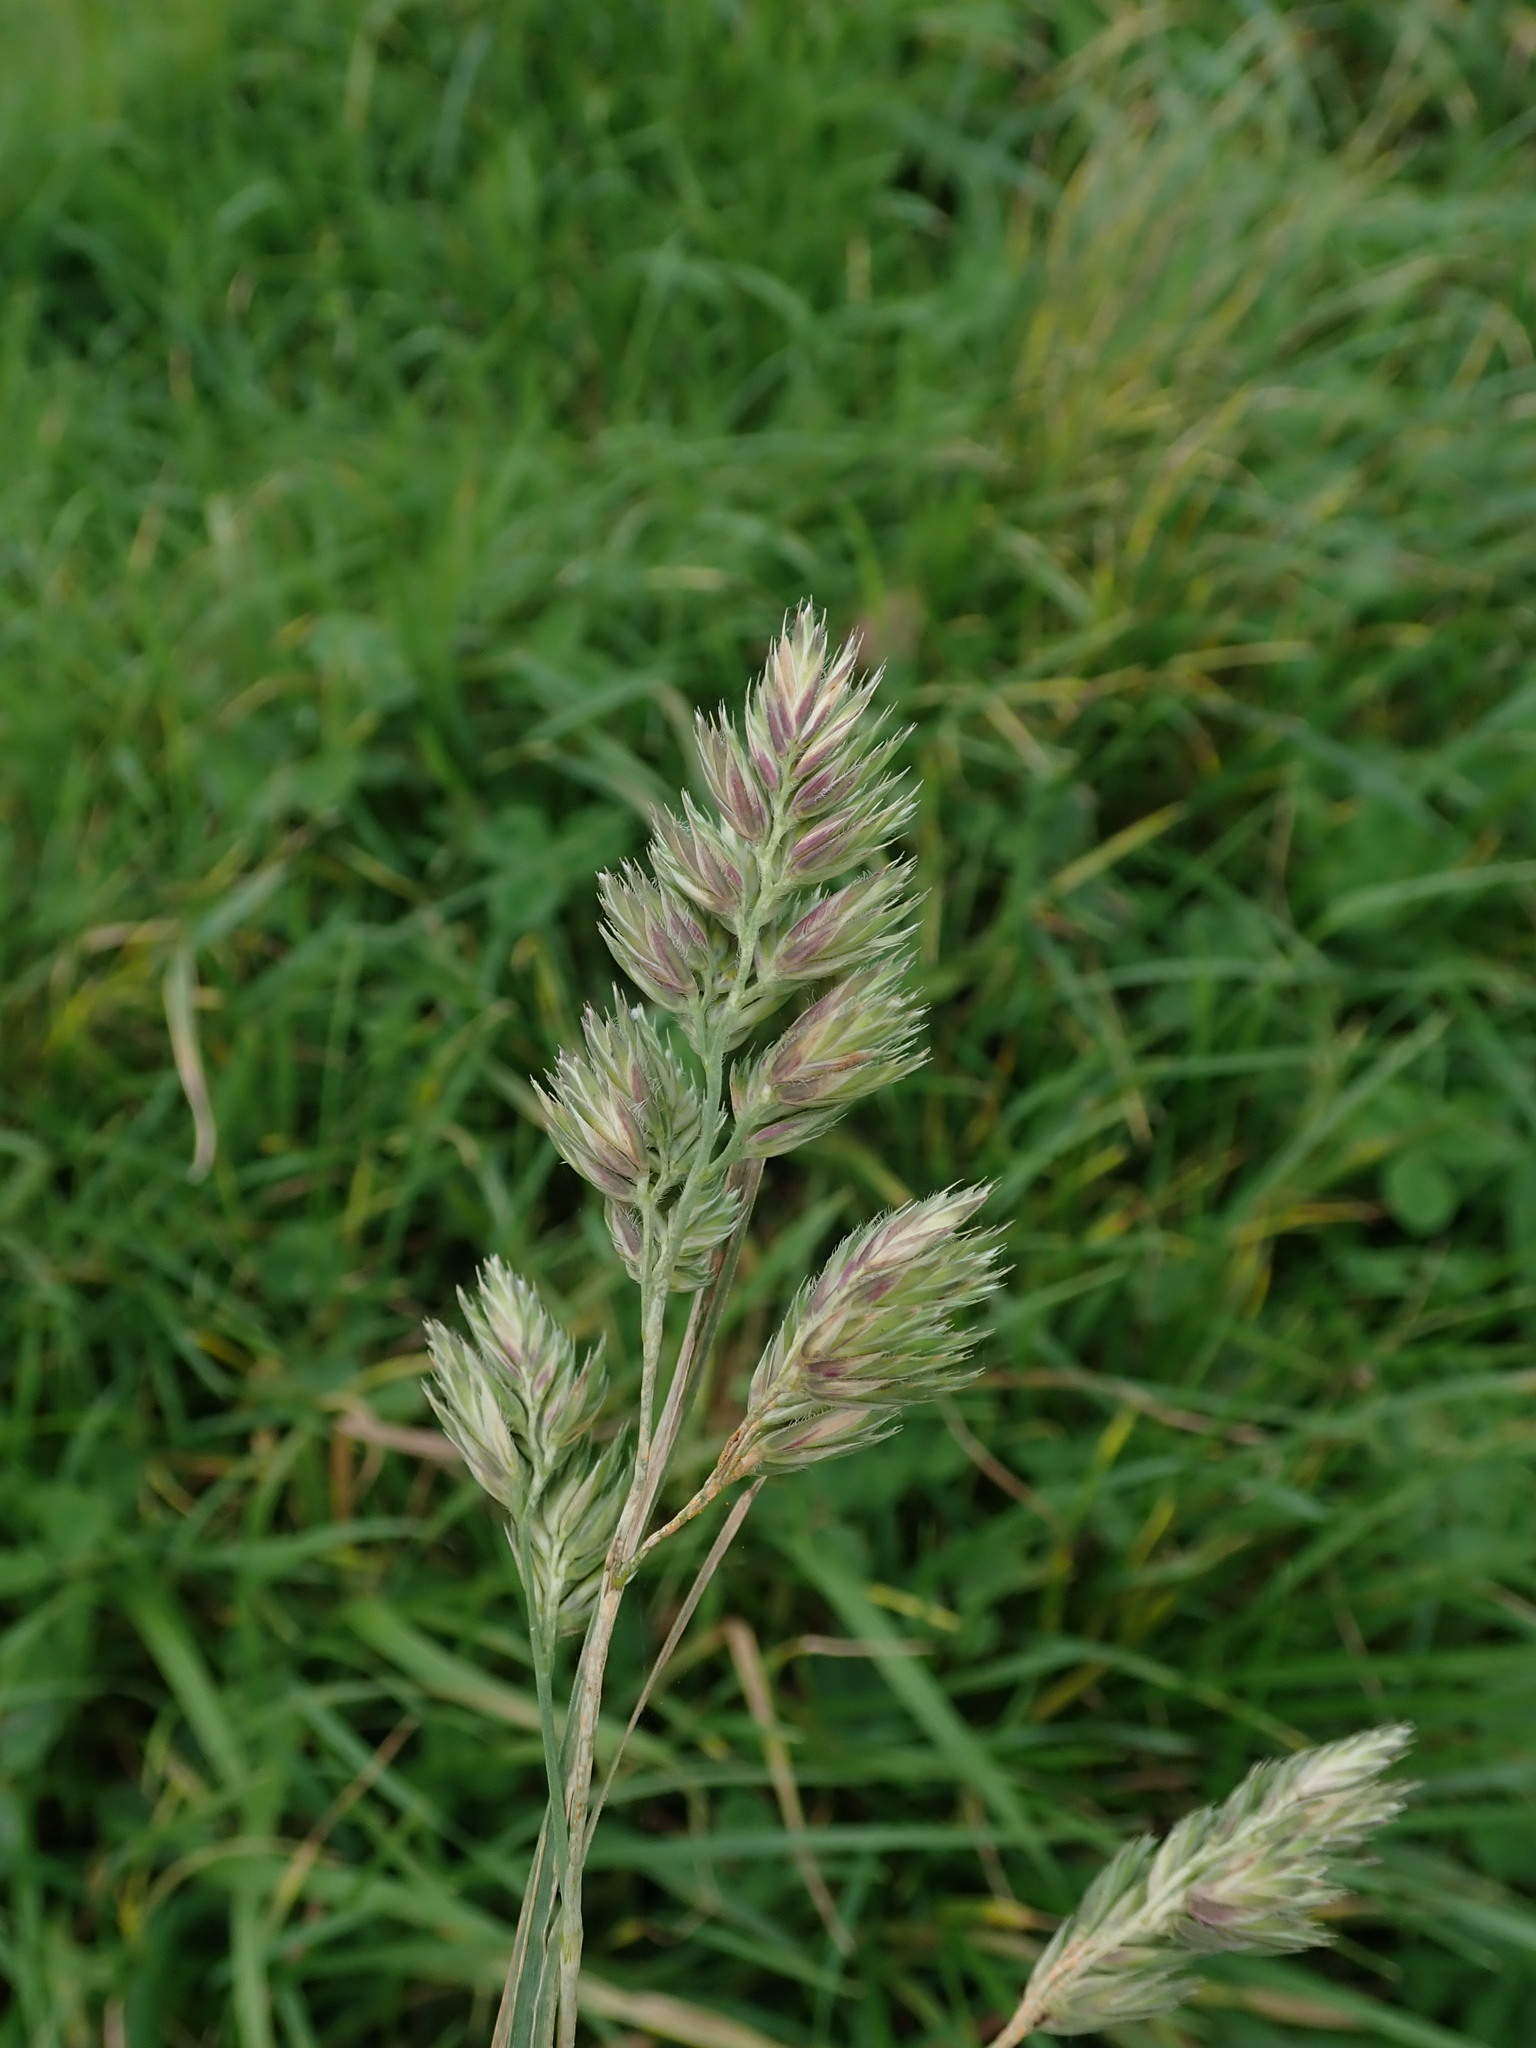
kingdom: Plantae
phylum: Tracheophyta
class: Liliopsida
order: Poales
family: Poaceae
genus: Dactylis
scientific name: Dactylis glomerata
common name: Orchardgrass
